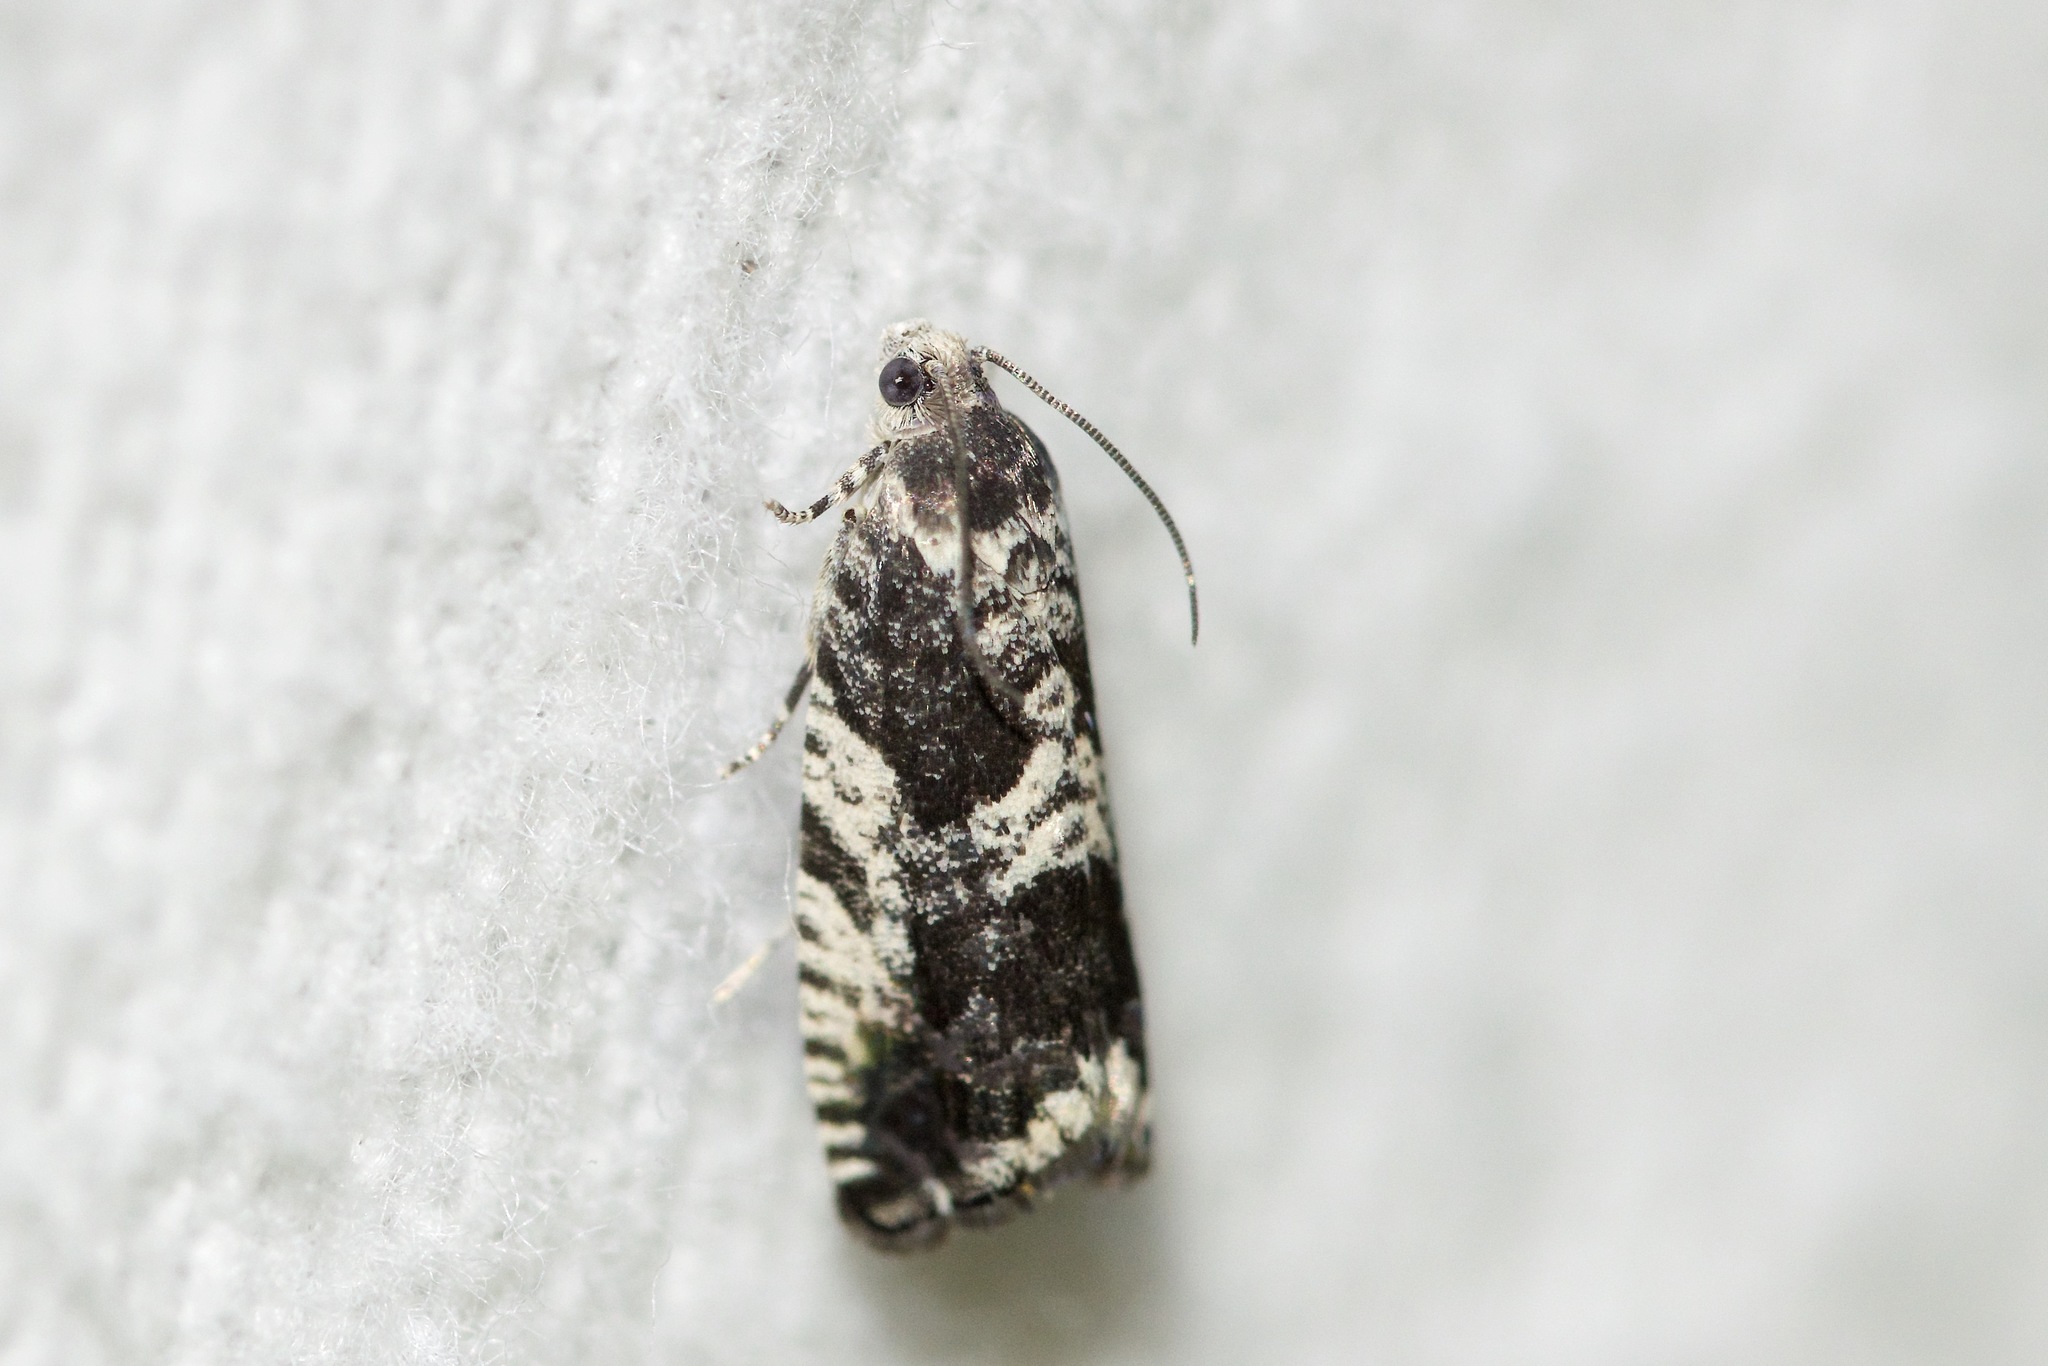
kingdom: Animalia
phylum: Arthropoda
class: Insecta
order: Lepidoptera
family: Tortricidae
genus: Cydia
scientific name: Cydia populana
